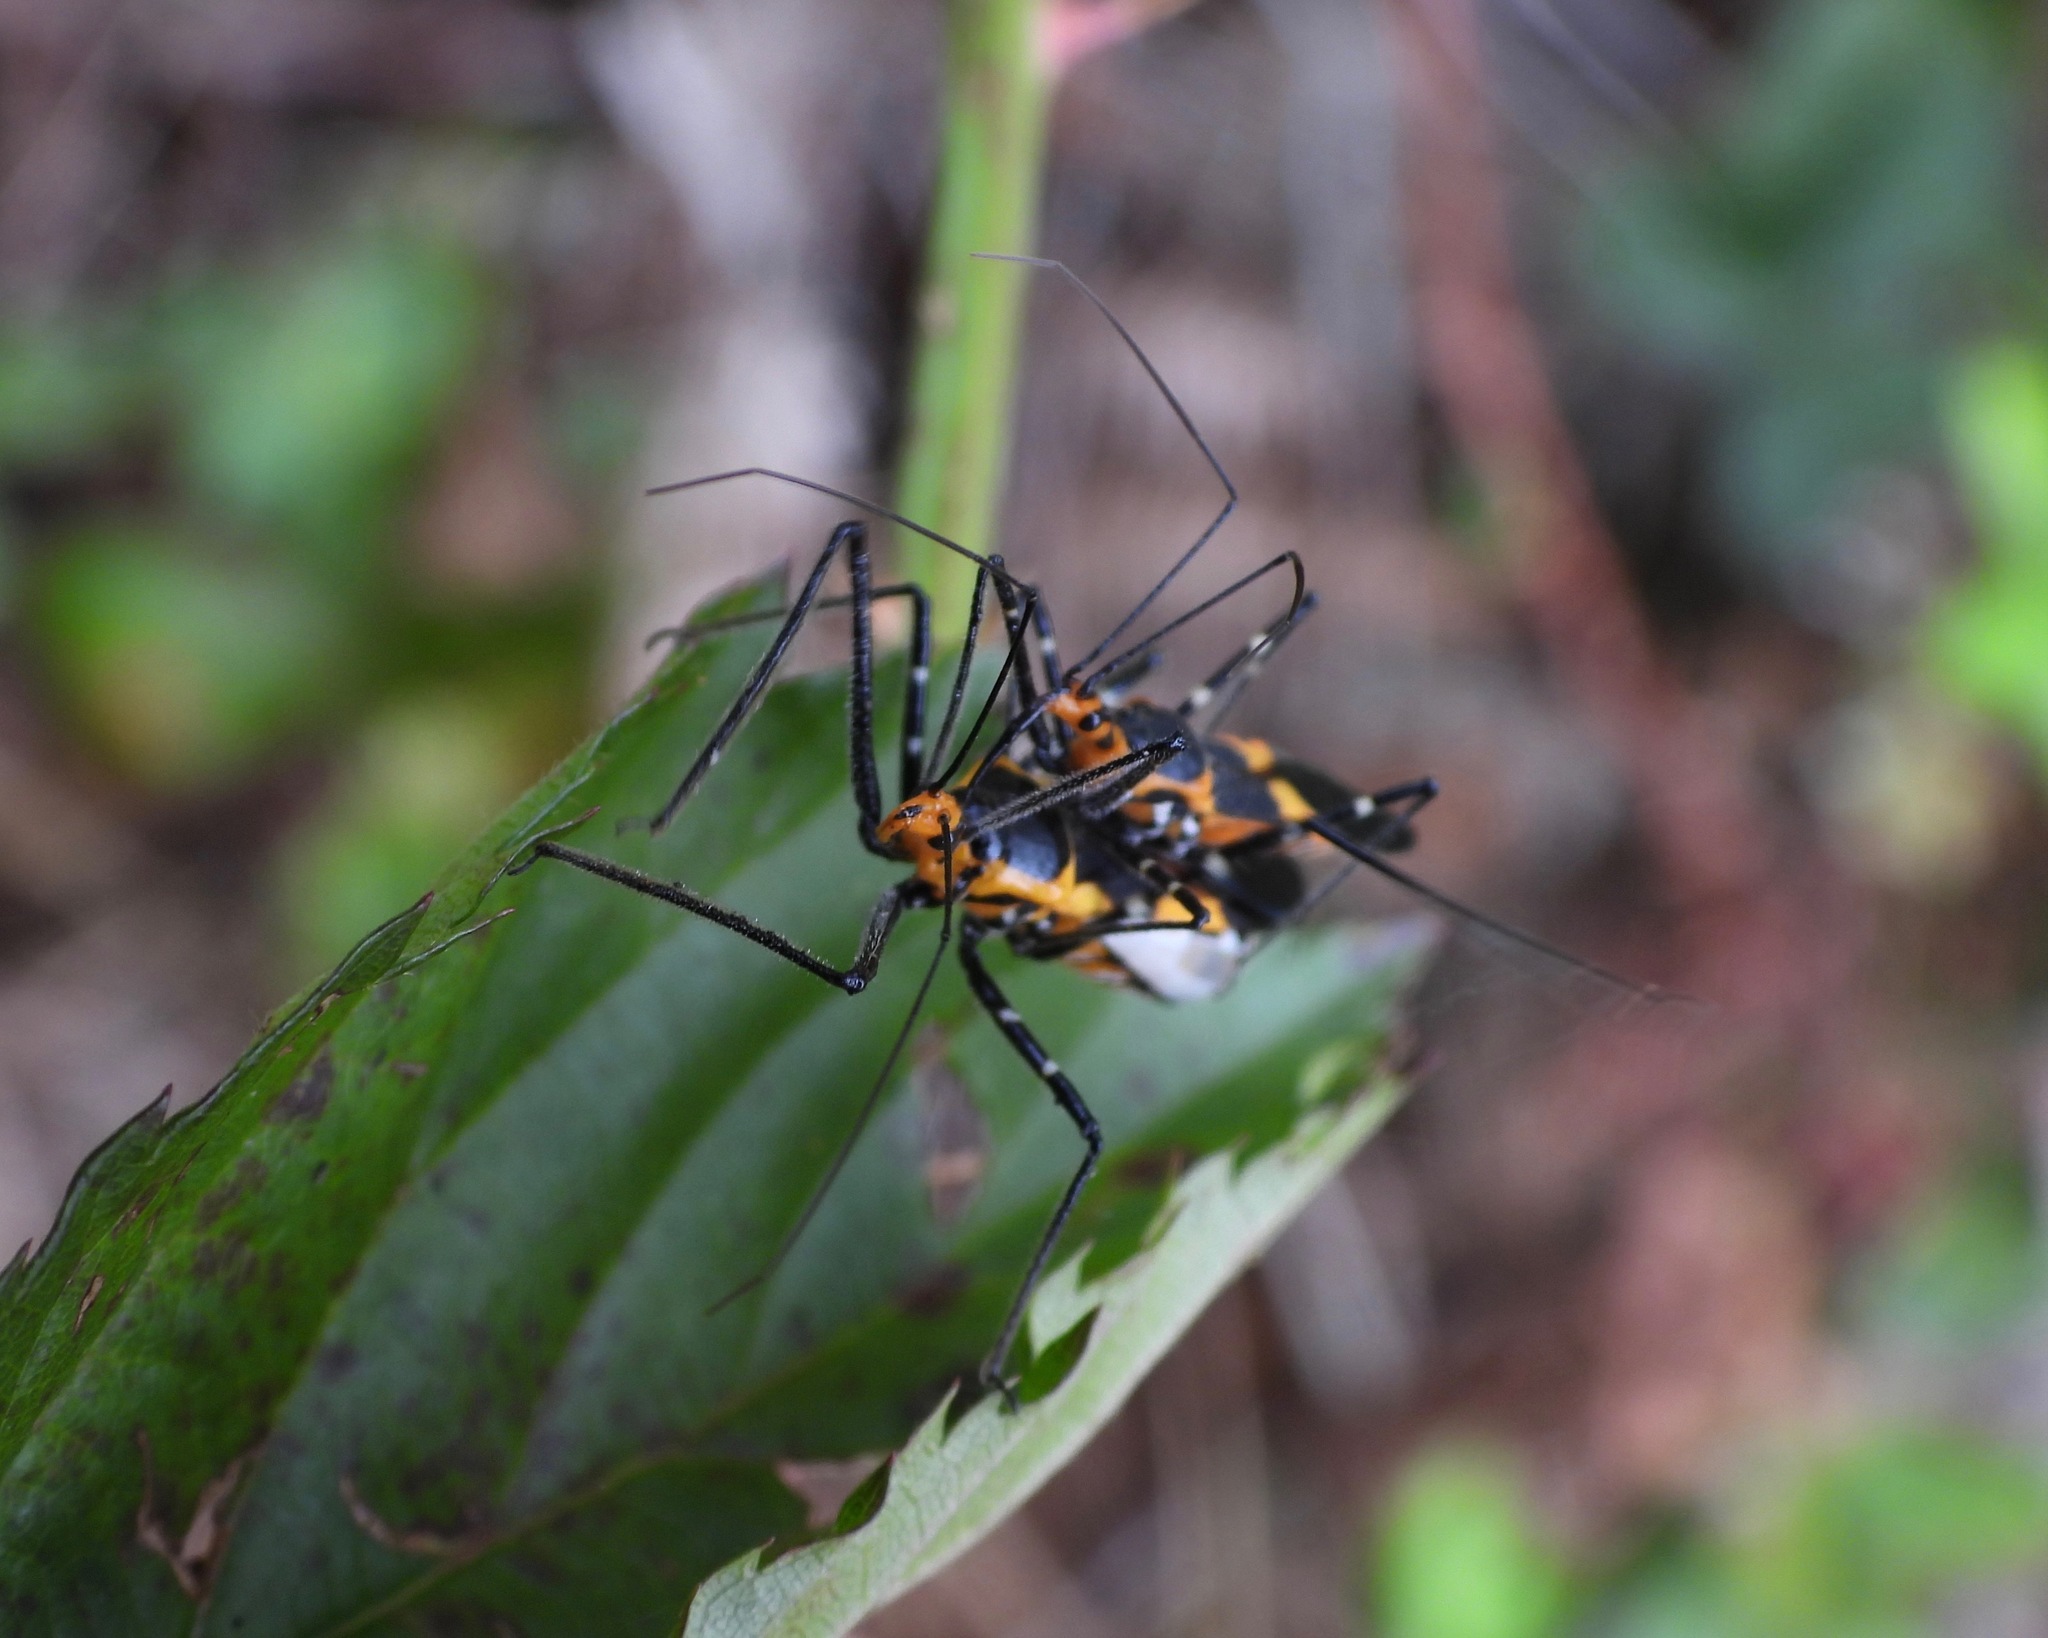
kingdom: Animalia
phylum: Arthropoda
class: Insecta
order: Hemiptera
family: Reduviidae
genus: Zelus
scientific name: Zelus longipes
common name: Milkweed assassin bug
